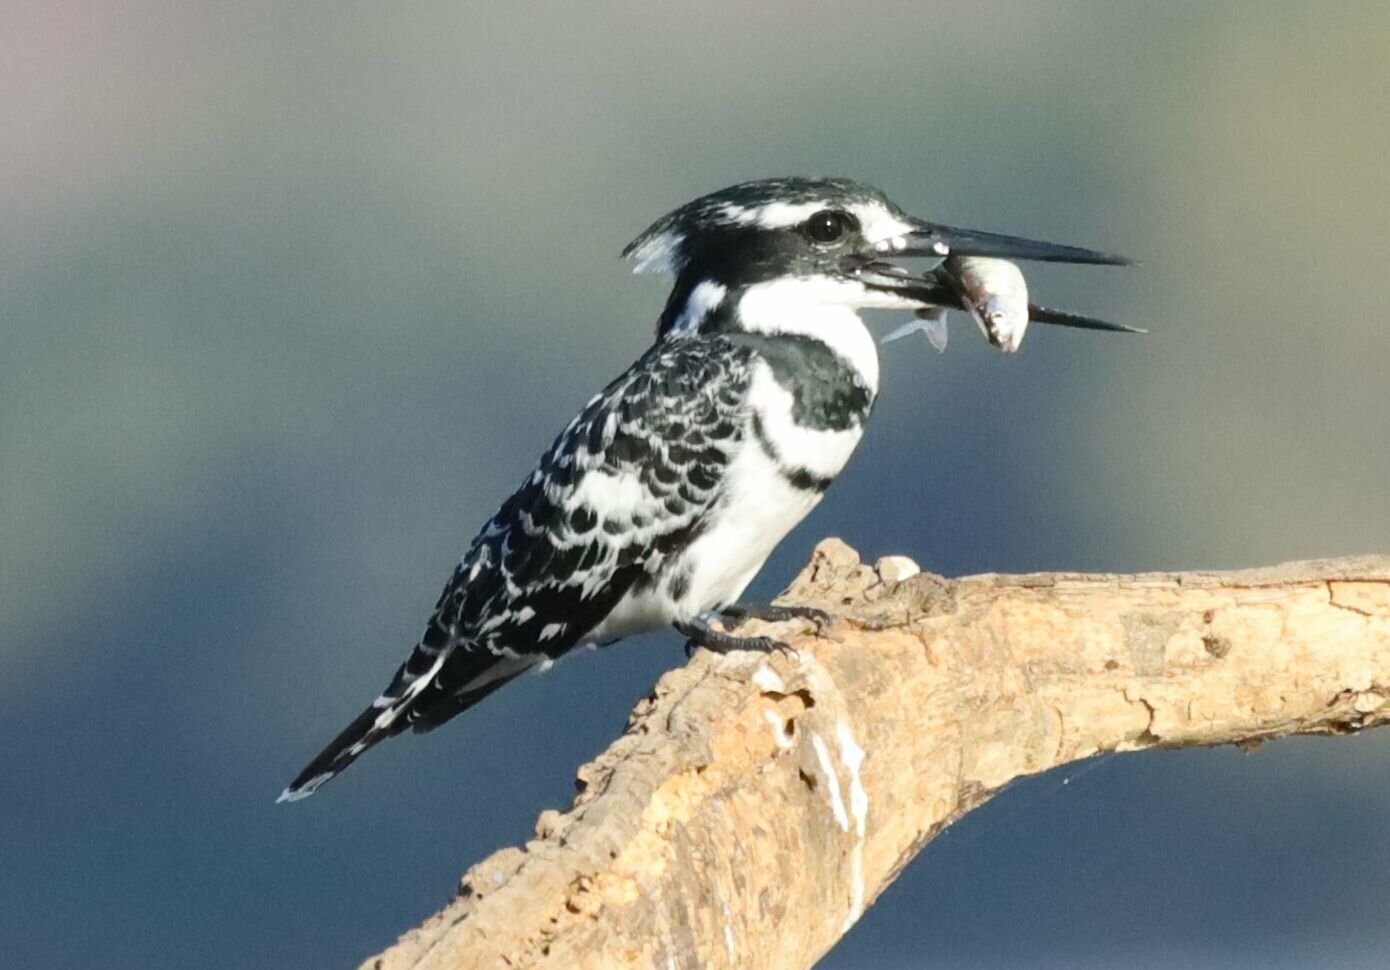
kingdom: Animalia
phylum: Chordata
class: Aves
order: Coraciiformes
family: Alcedinidae
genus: Ceryle
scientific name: Ceryle rudis
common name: Pied kingfisher
